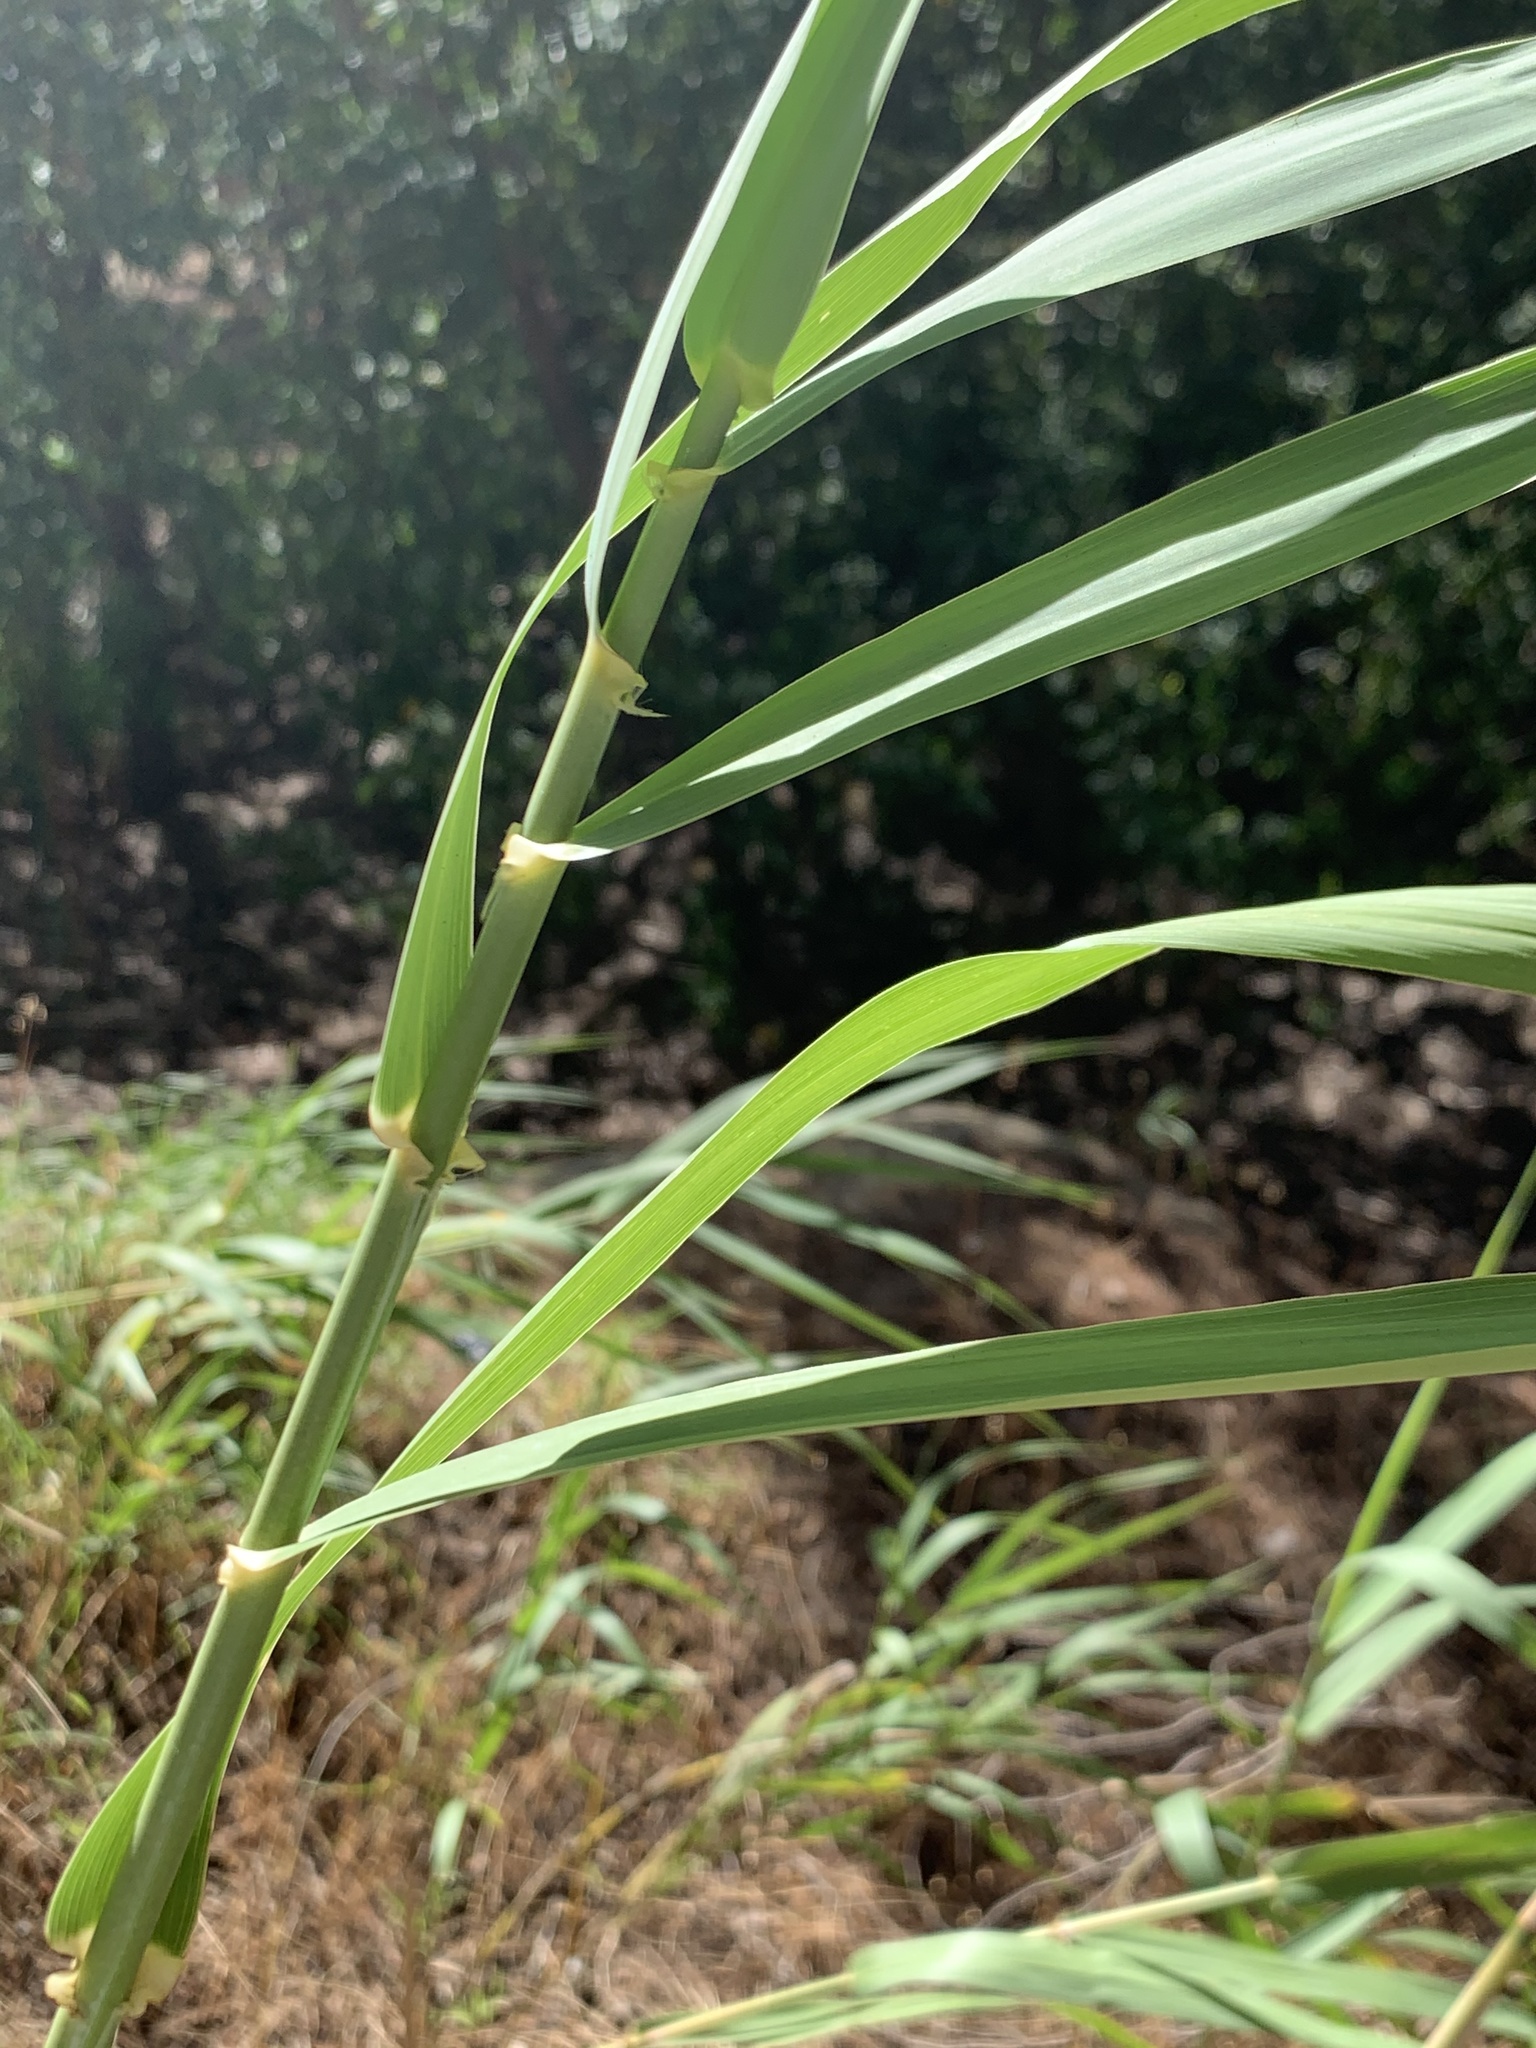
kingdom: Plantae
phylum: Tracheophyta
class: Liliopsida
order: Poales
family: Poaceae
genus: Arundo
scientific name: Arundo donax
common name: Giant reed
